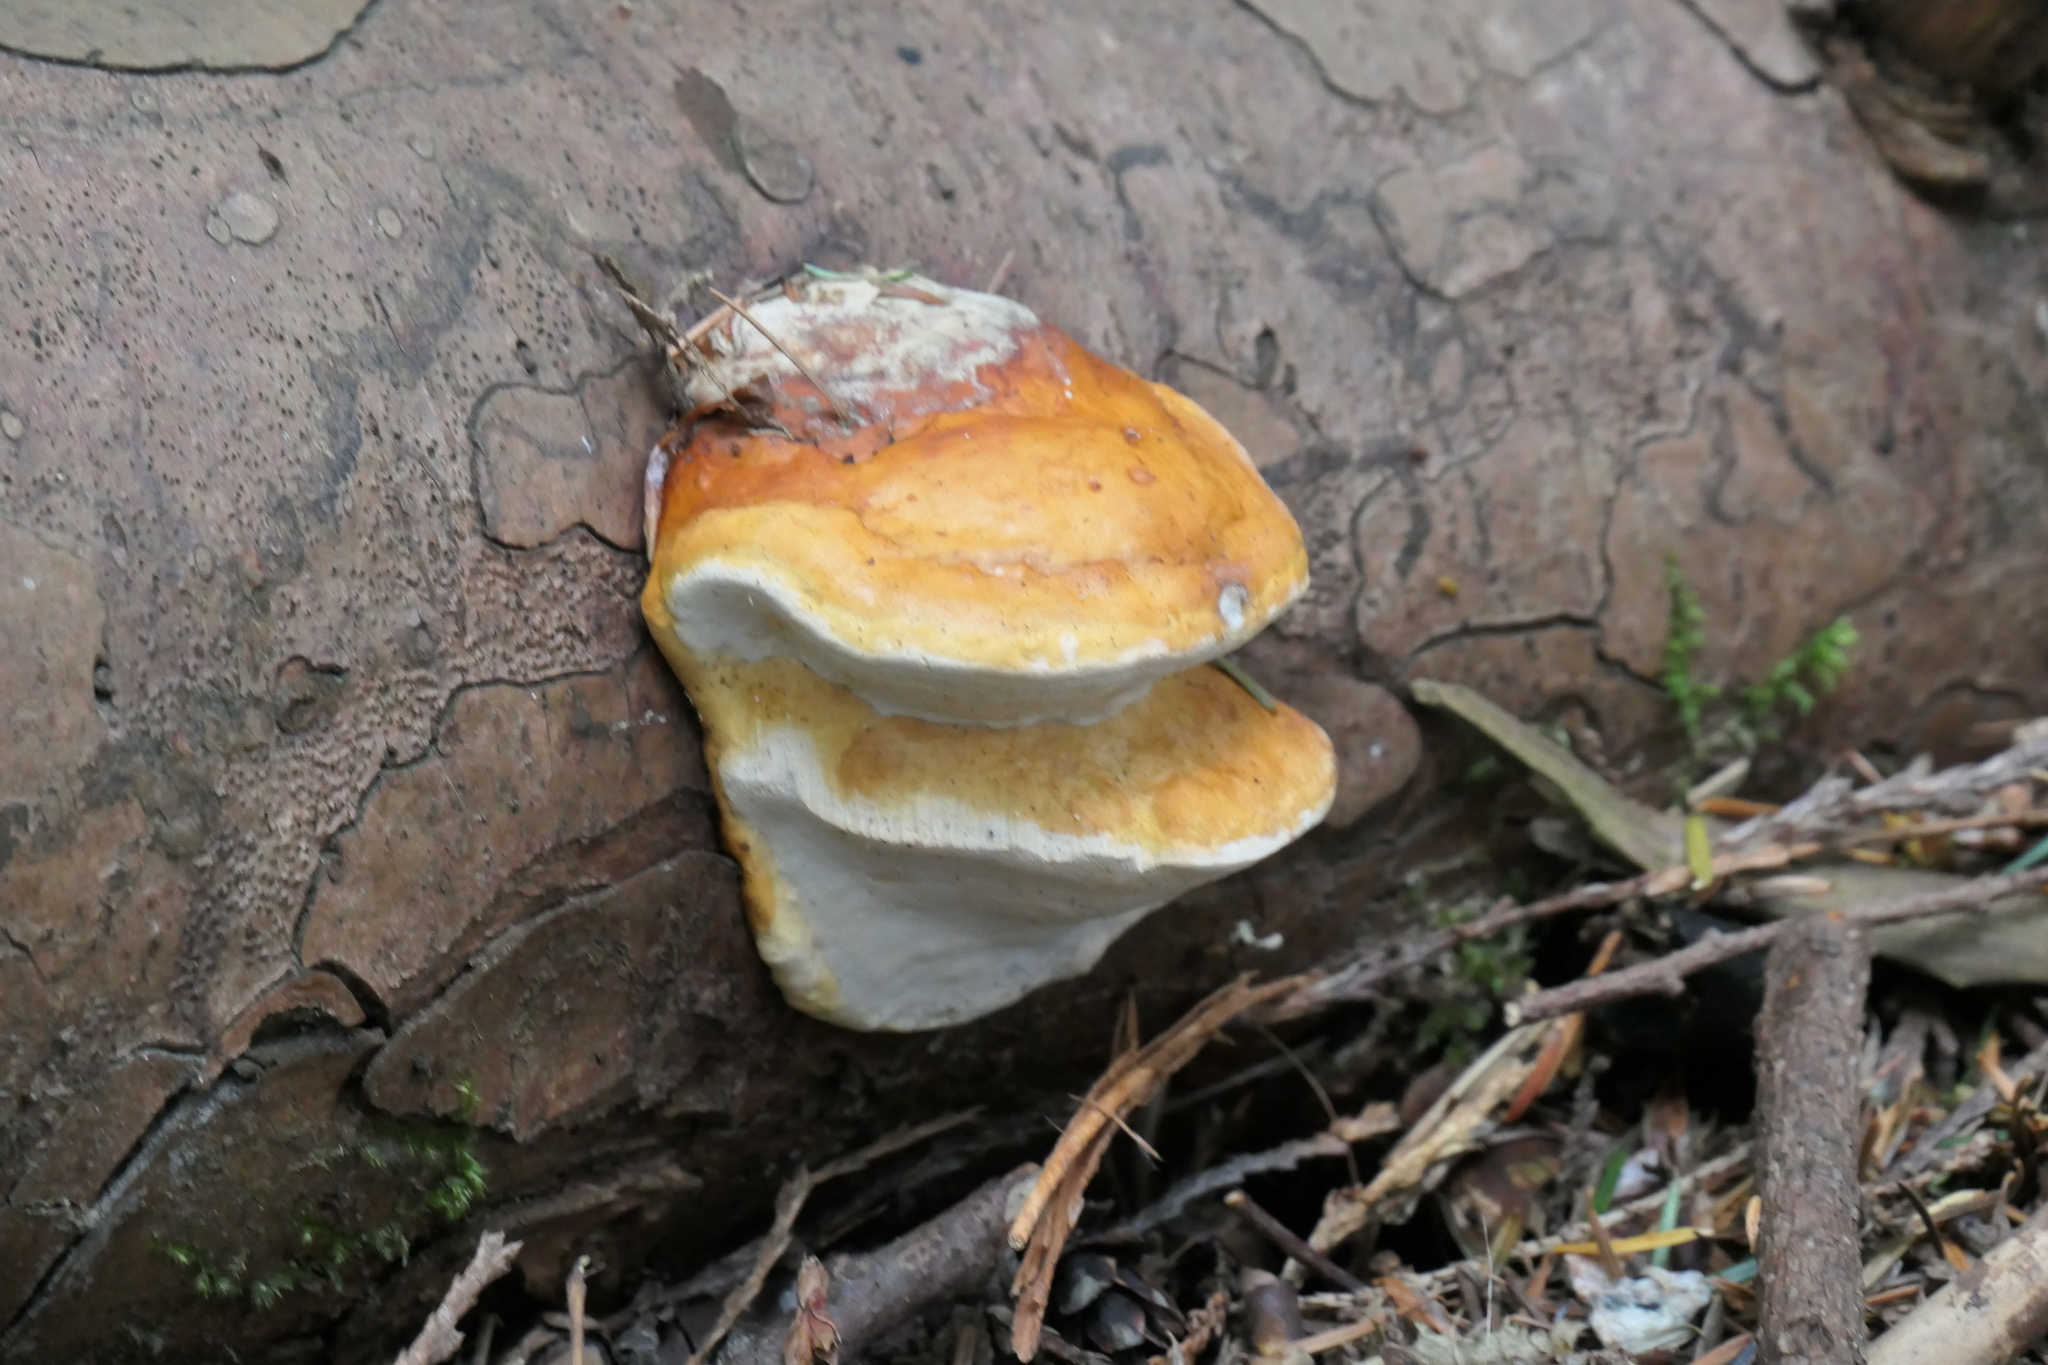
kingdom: Fungi
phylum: Basidiomycota
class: Agaricomycetes
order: Polyporales
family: Fomitopsidaceae
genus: Fomitopsis
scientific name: Fomitopsis mounceae
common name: Northern red belt
